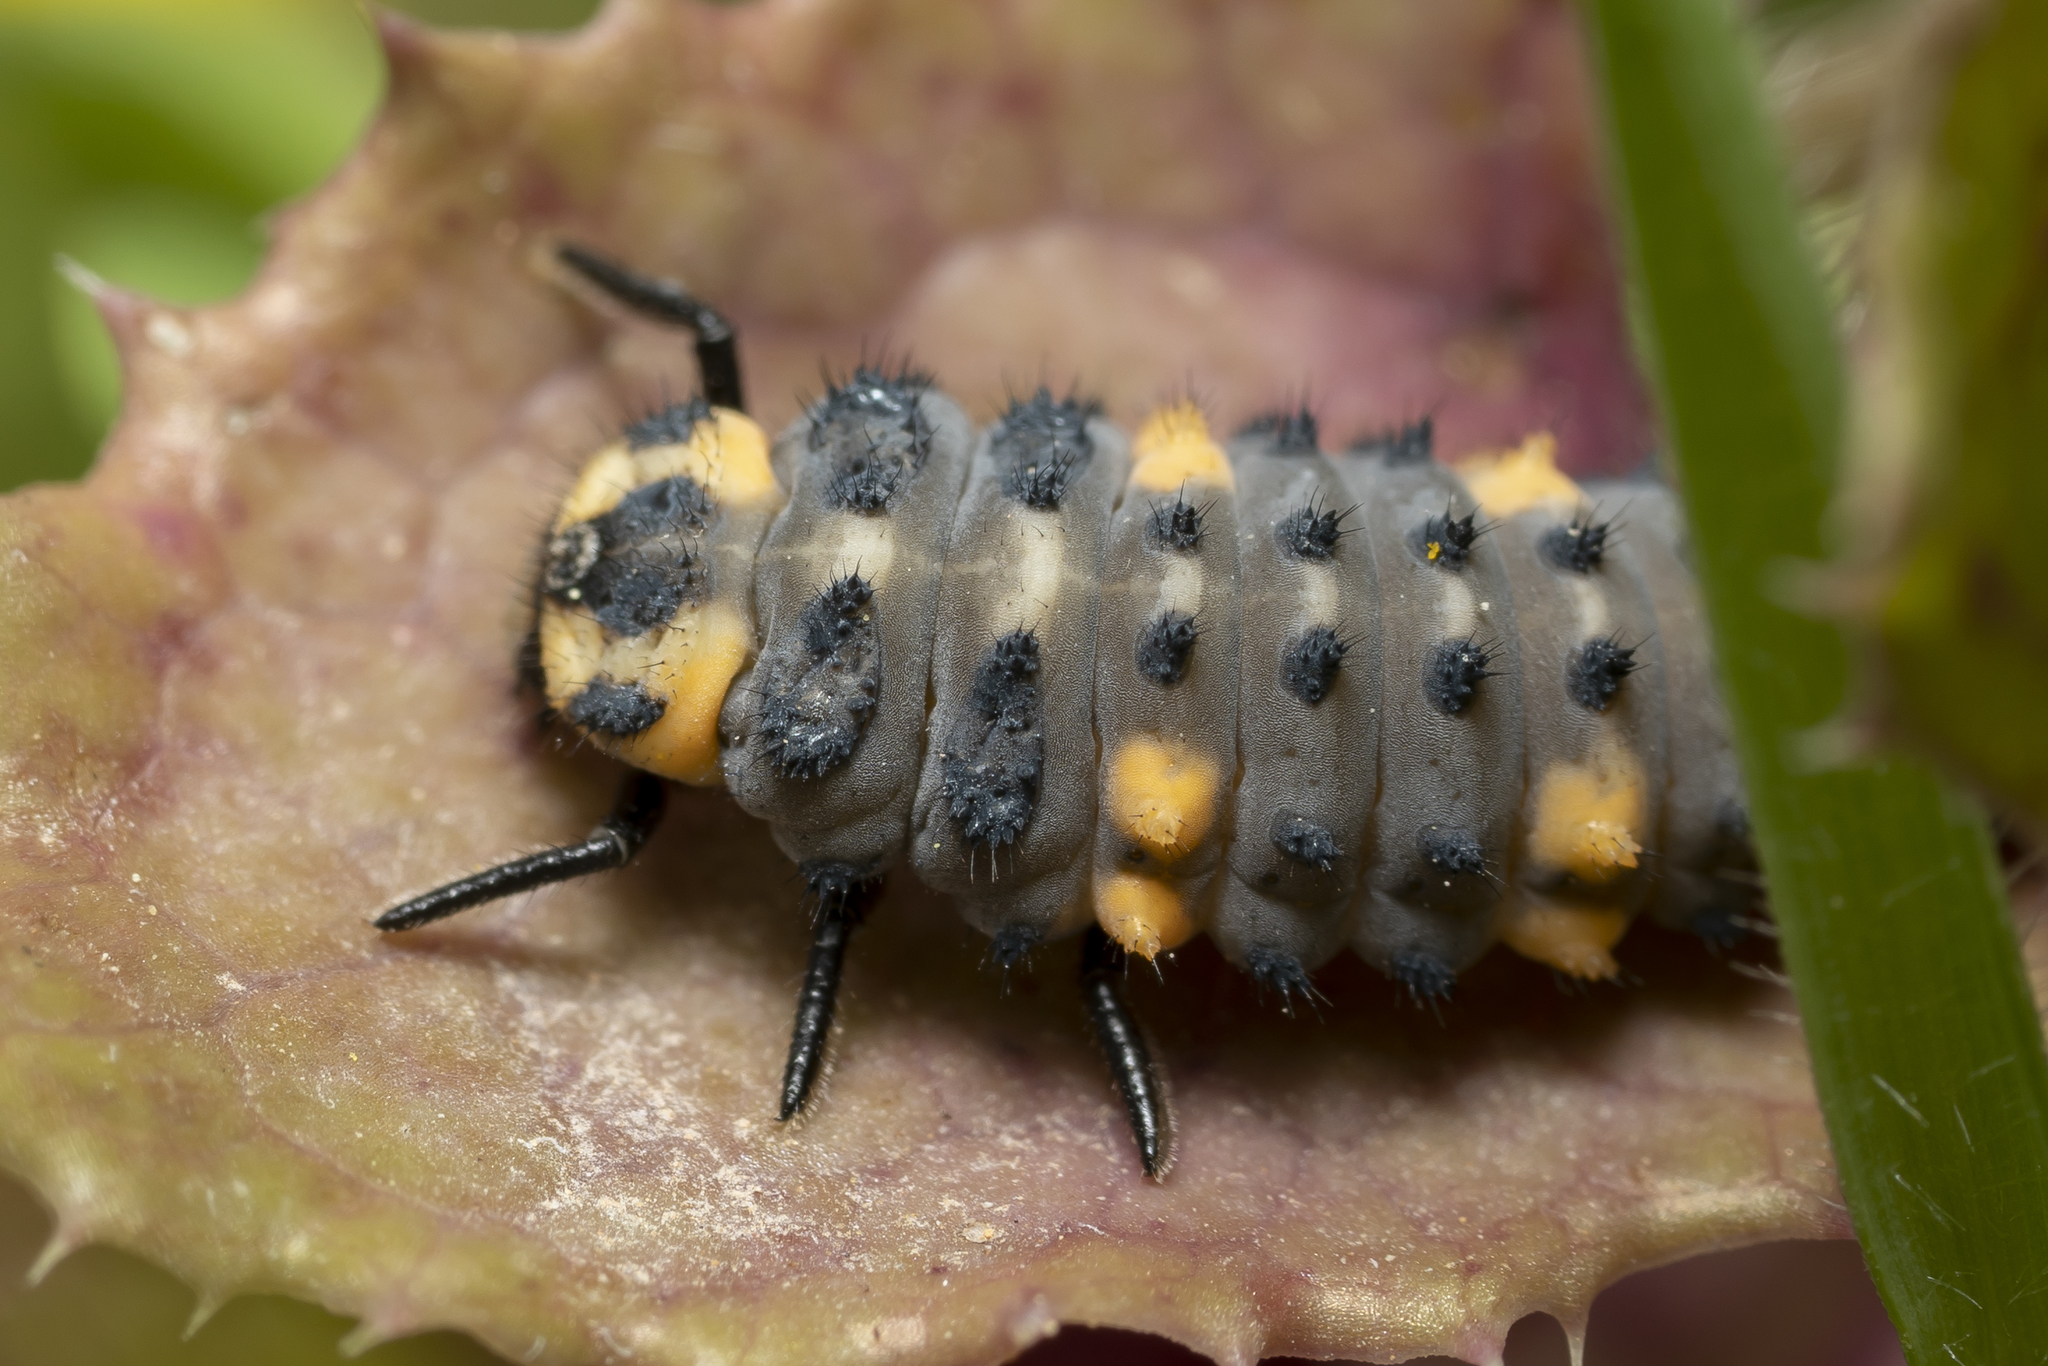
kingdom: Animalia
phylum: Arthropoda
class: Insecta
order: Coleoptera
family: Coccinellidae
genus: Coccinella
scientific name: Coccinella septempunctata
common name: Sevenspotted lady beetle
